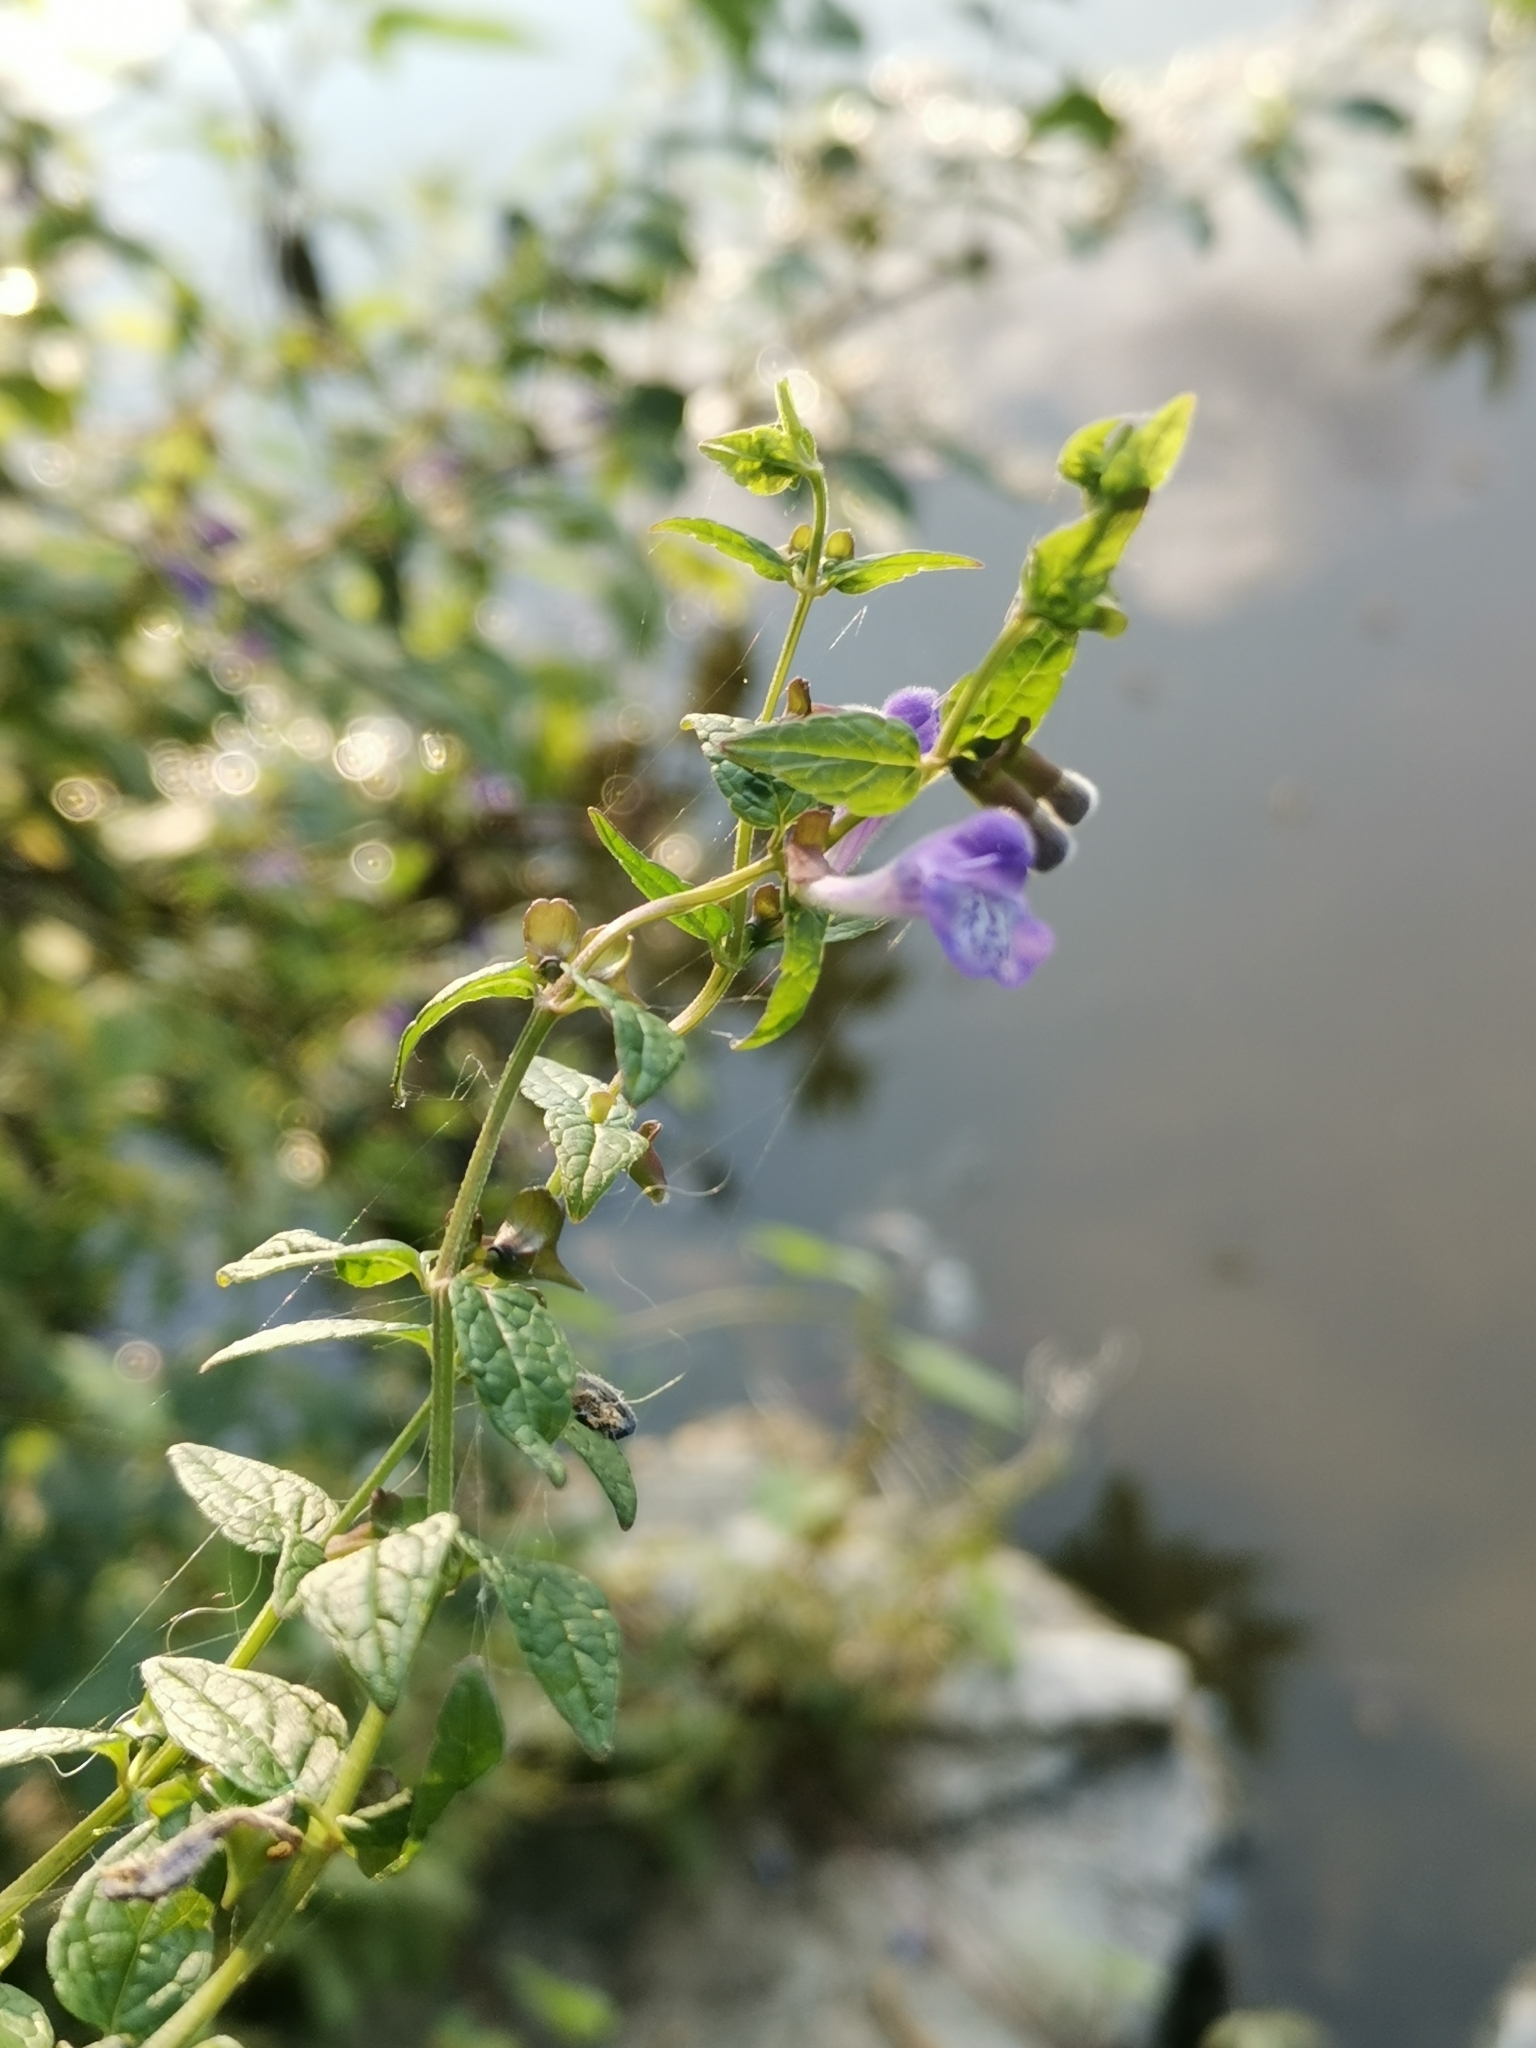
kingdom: Plantae
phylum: Tracheophyta
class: Magnoliopsida
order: Lamiales
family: Lamiaceae
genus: Scutellaria
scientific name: Scutellaria galericulata
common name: Skullcap
